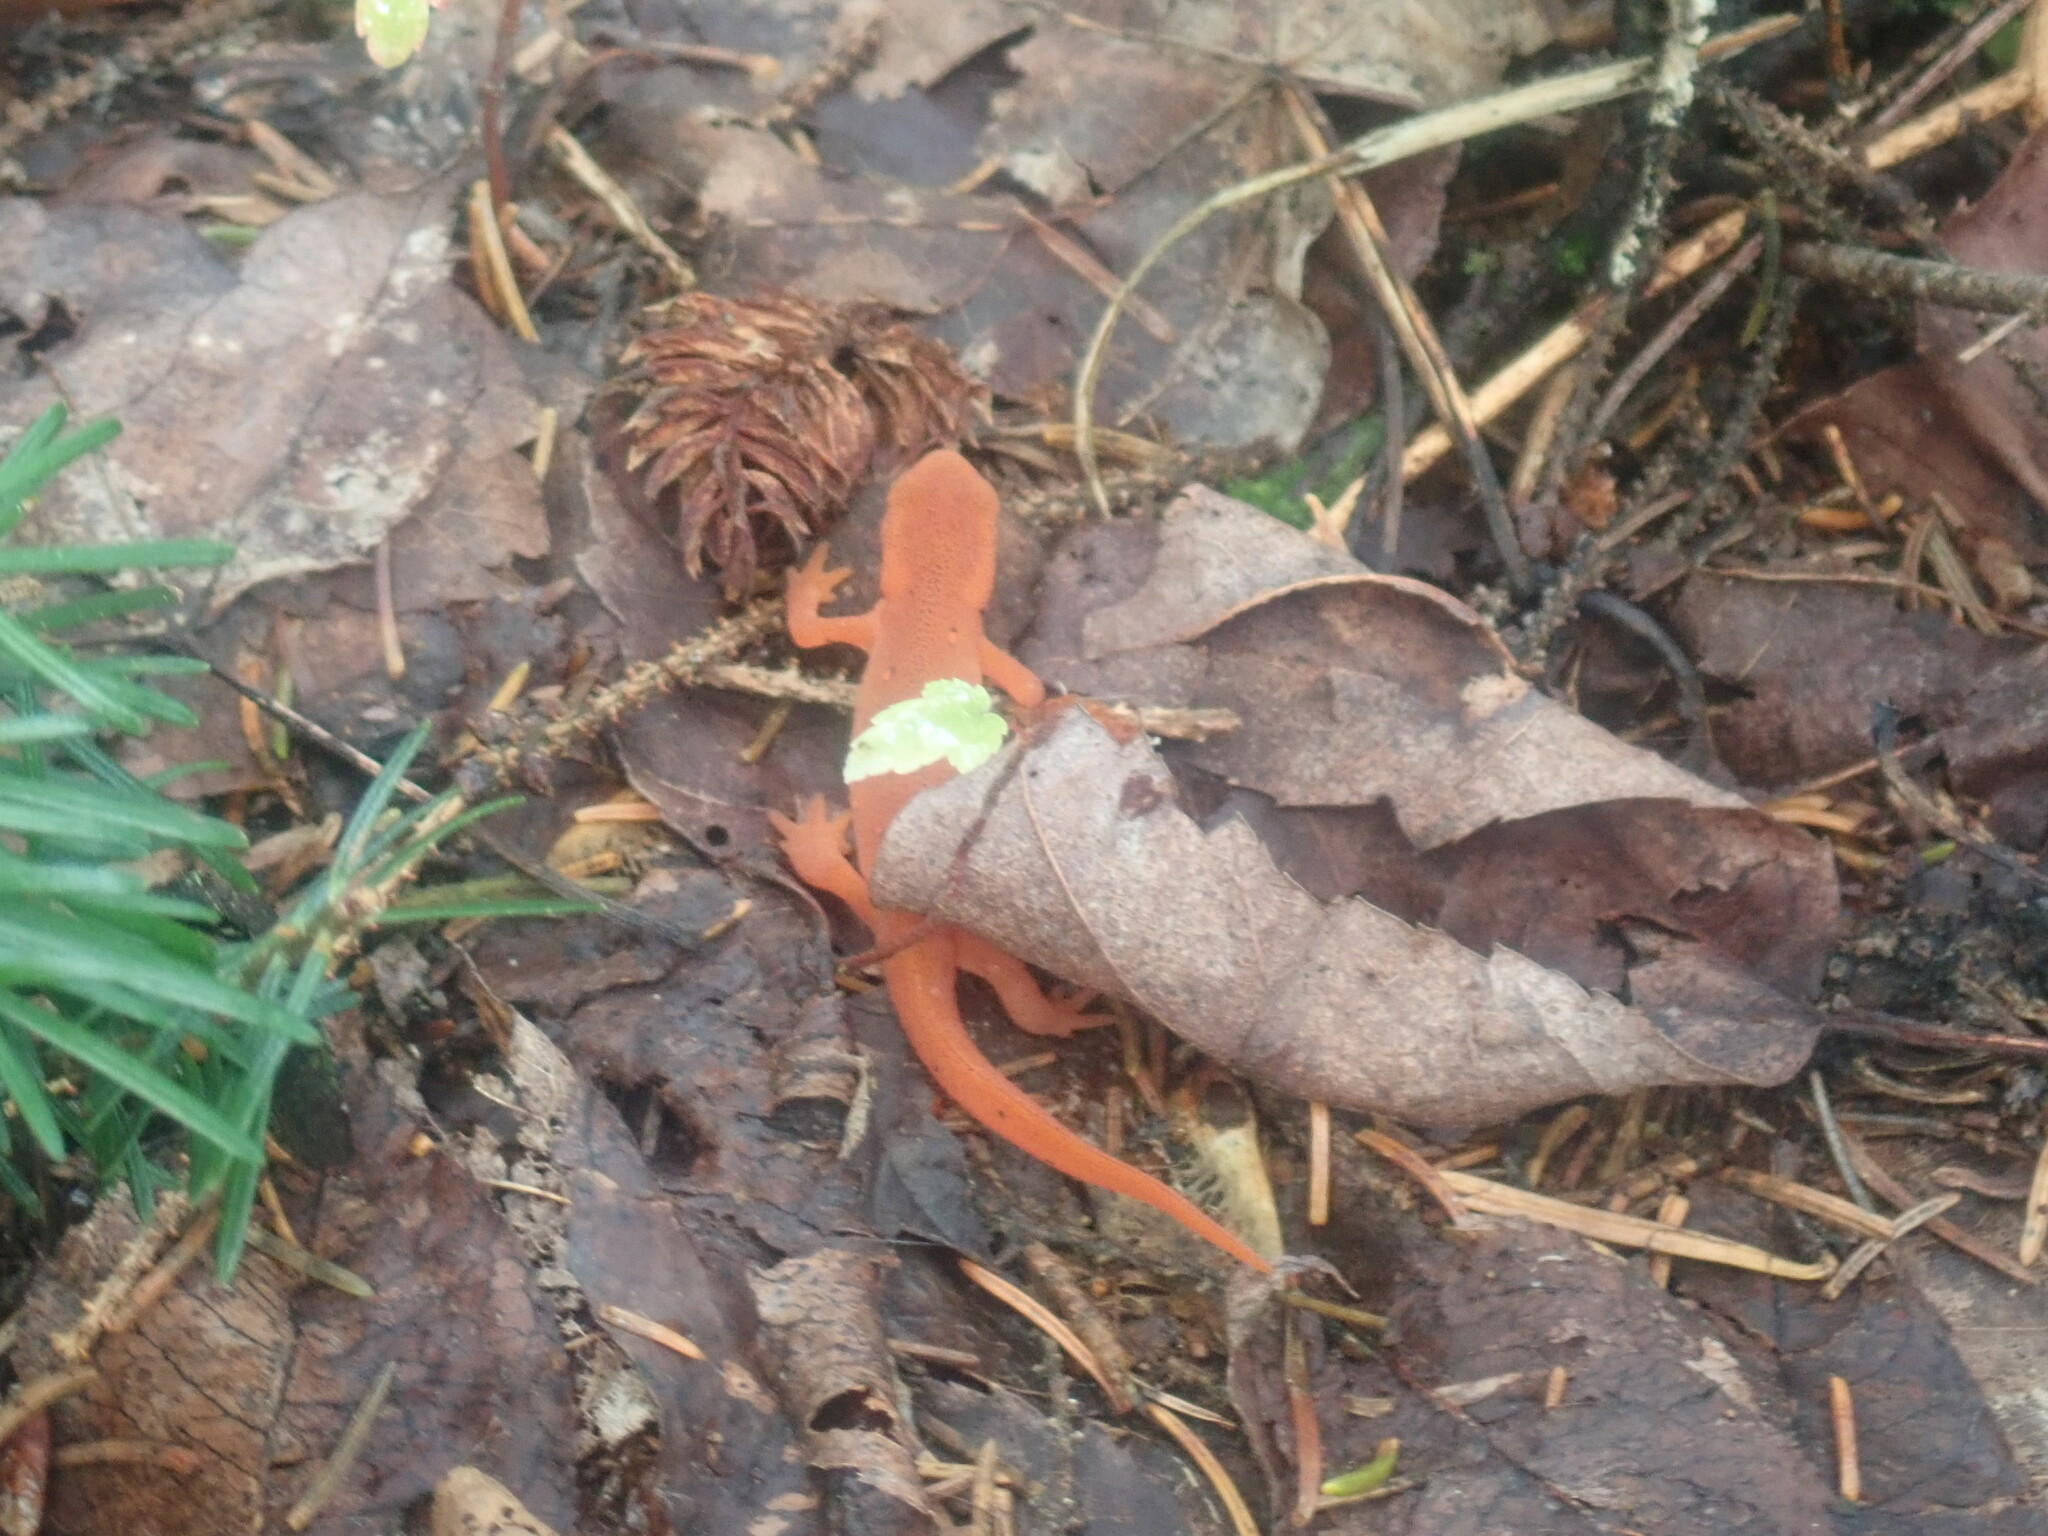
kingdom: Animalia
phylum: Chordata
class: Amphibia
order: Caudata
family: Salamandridae
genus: Notophthalmus
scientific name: Notophthalmus viridescens
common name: Eastern newt
